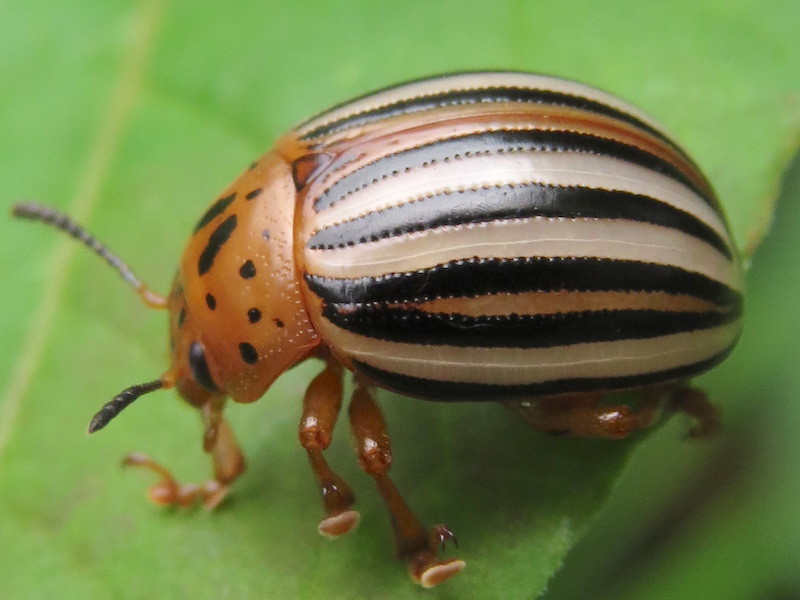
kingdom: Animalia
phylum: Arthropoda
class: Insecta
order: Coleoptera
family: Chrysomelidae
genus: Leptinotarsa
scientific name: Leptinotarsa juncta
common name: False potato beetle
